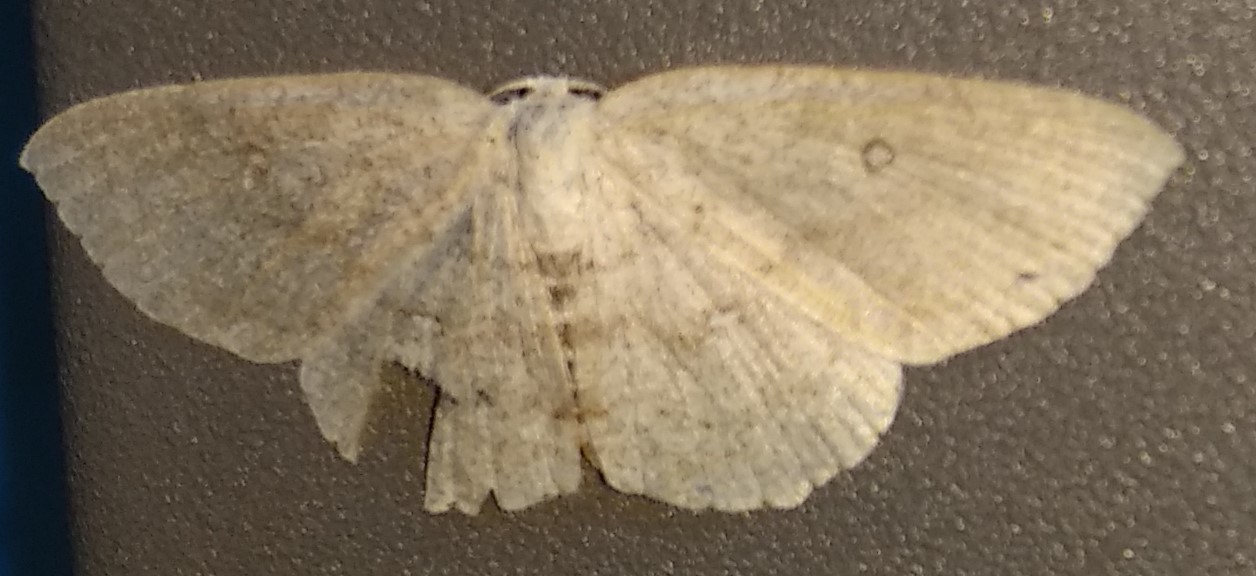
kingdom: Animalia
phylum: Arthropoda
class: Insecta
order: Lepidoptera
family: Geometridae
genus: Cyclophora
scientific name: Cyclophora pendulinaria
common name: Sweet fern geometer
